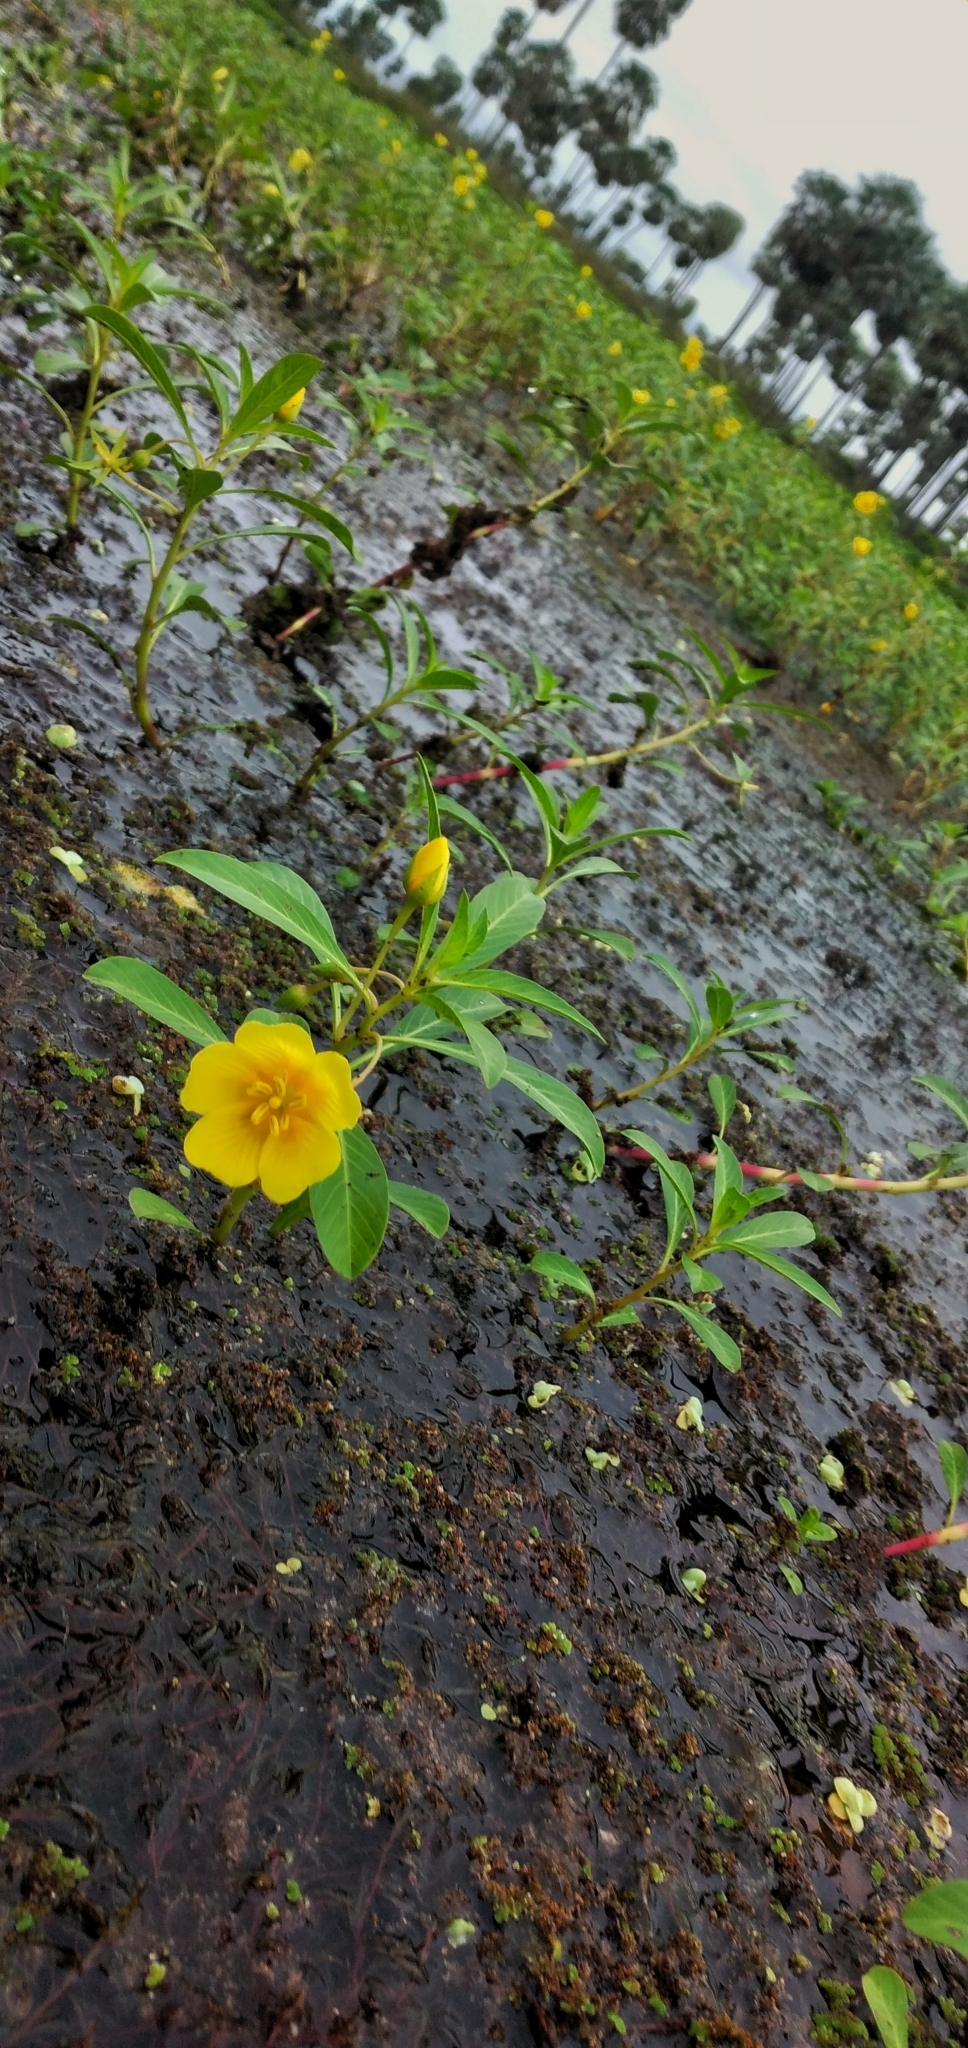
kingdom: Plantae
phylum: Tracheophyta
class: Magnoliopsida
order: Myrtales
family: Onagraceae
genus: Ludwigia
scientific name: Ludwigia peploides
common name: Floating primrose-willow
